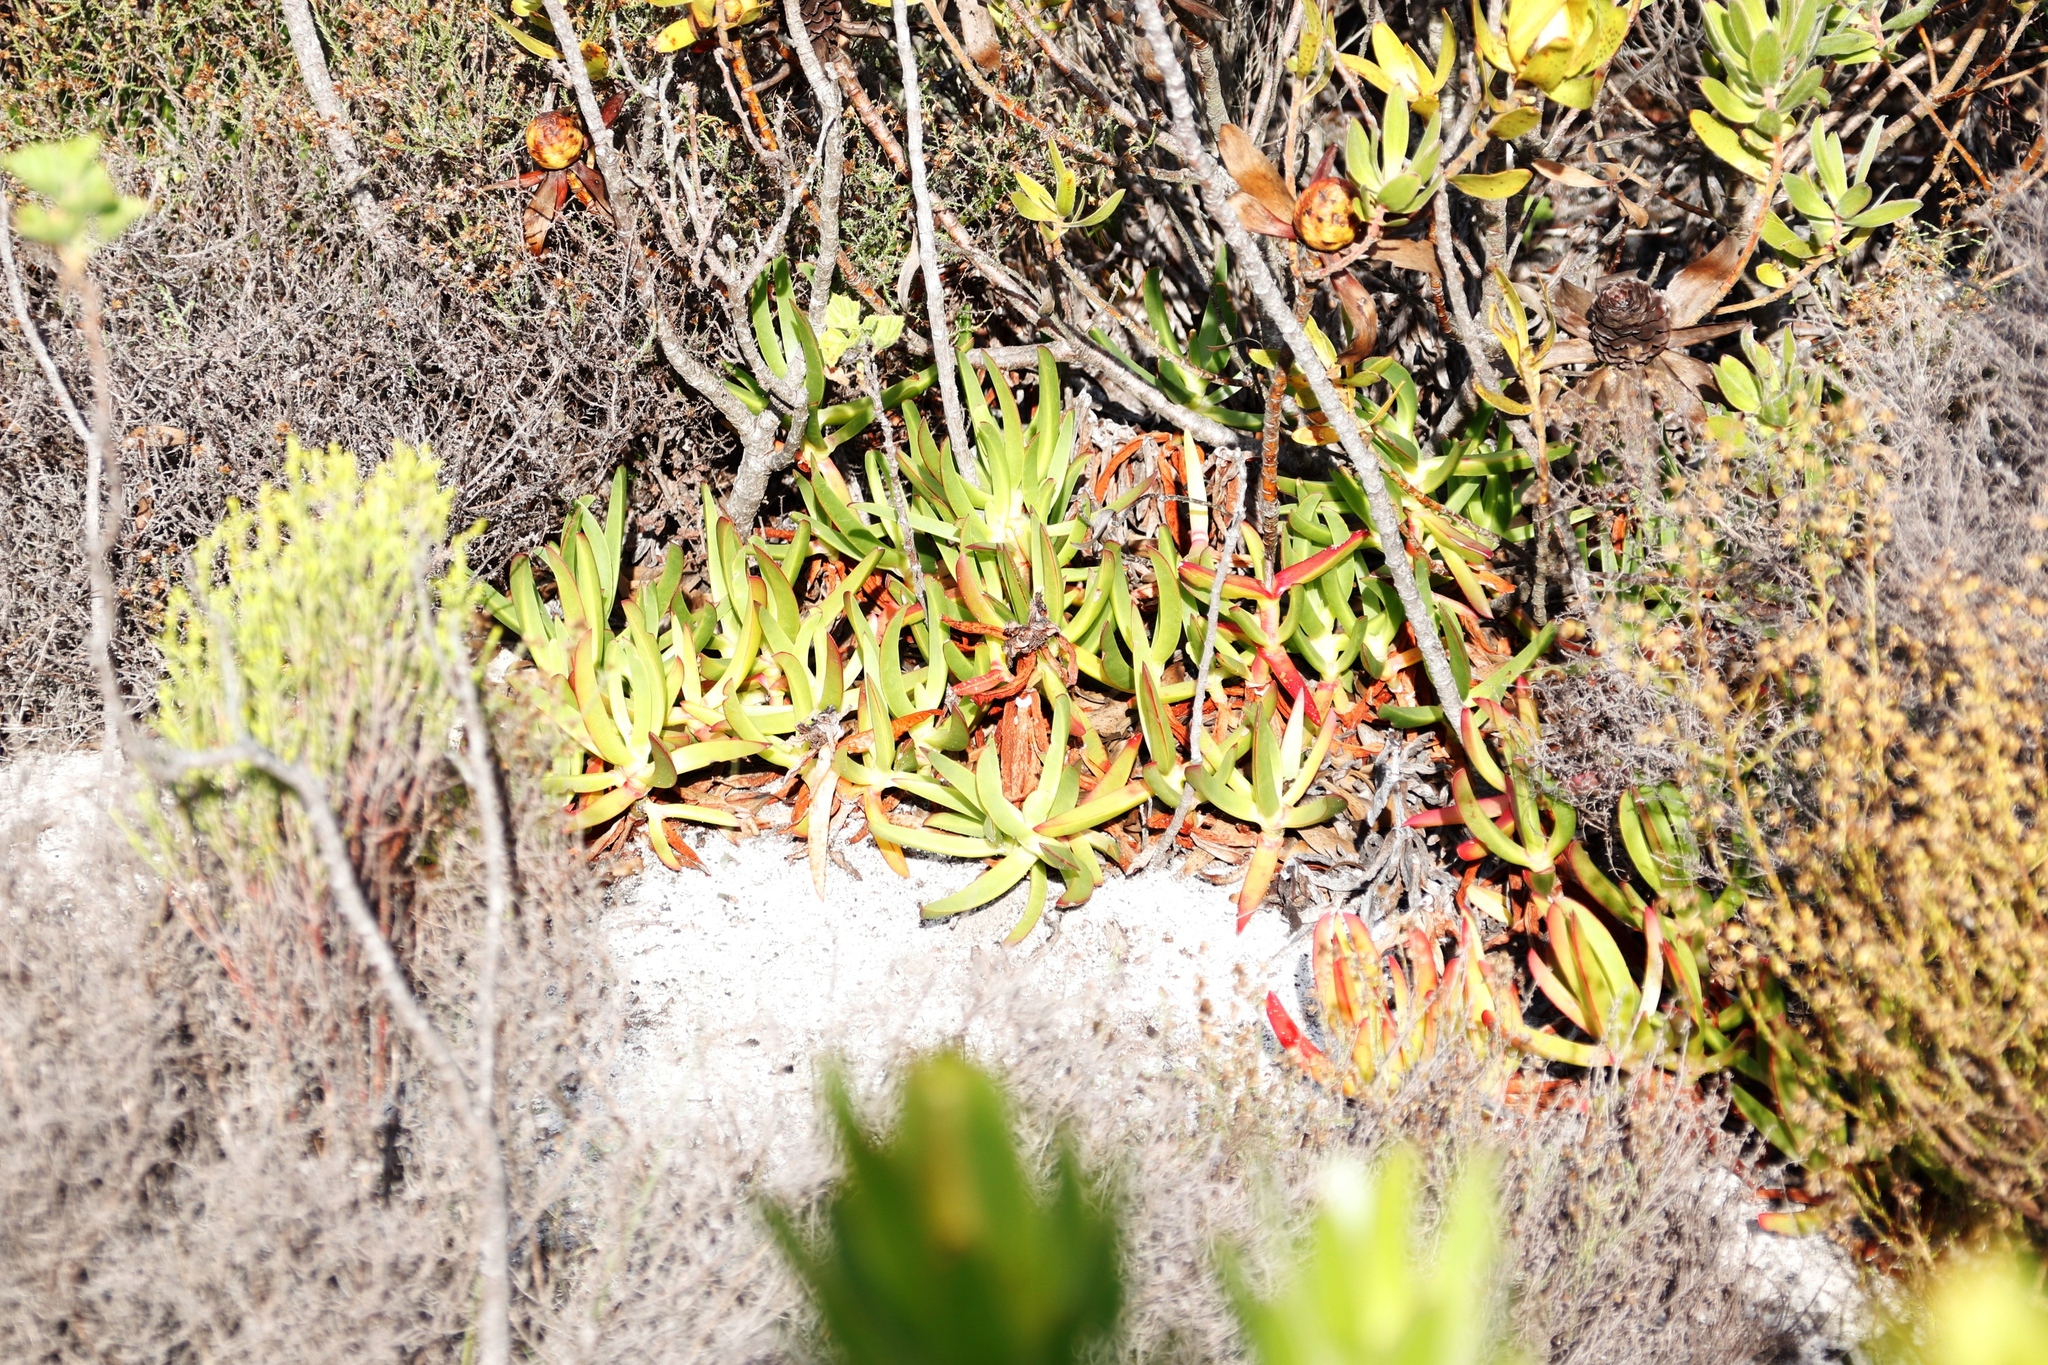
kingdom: Plantae
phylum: Tracheophyta
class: Magnoliopsida
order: Caryophyllales
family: Aizoaceae
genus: Carpobrotus
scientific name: Carpobrotus edulis
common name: Hottentot-fig
